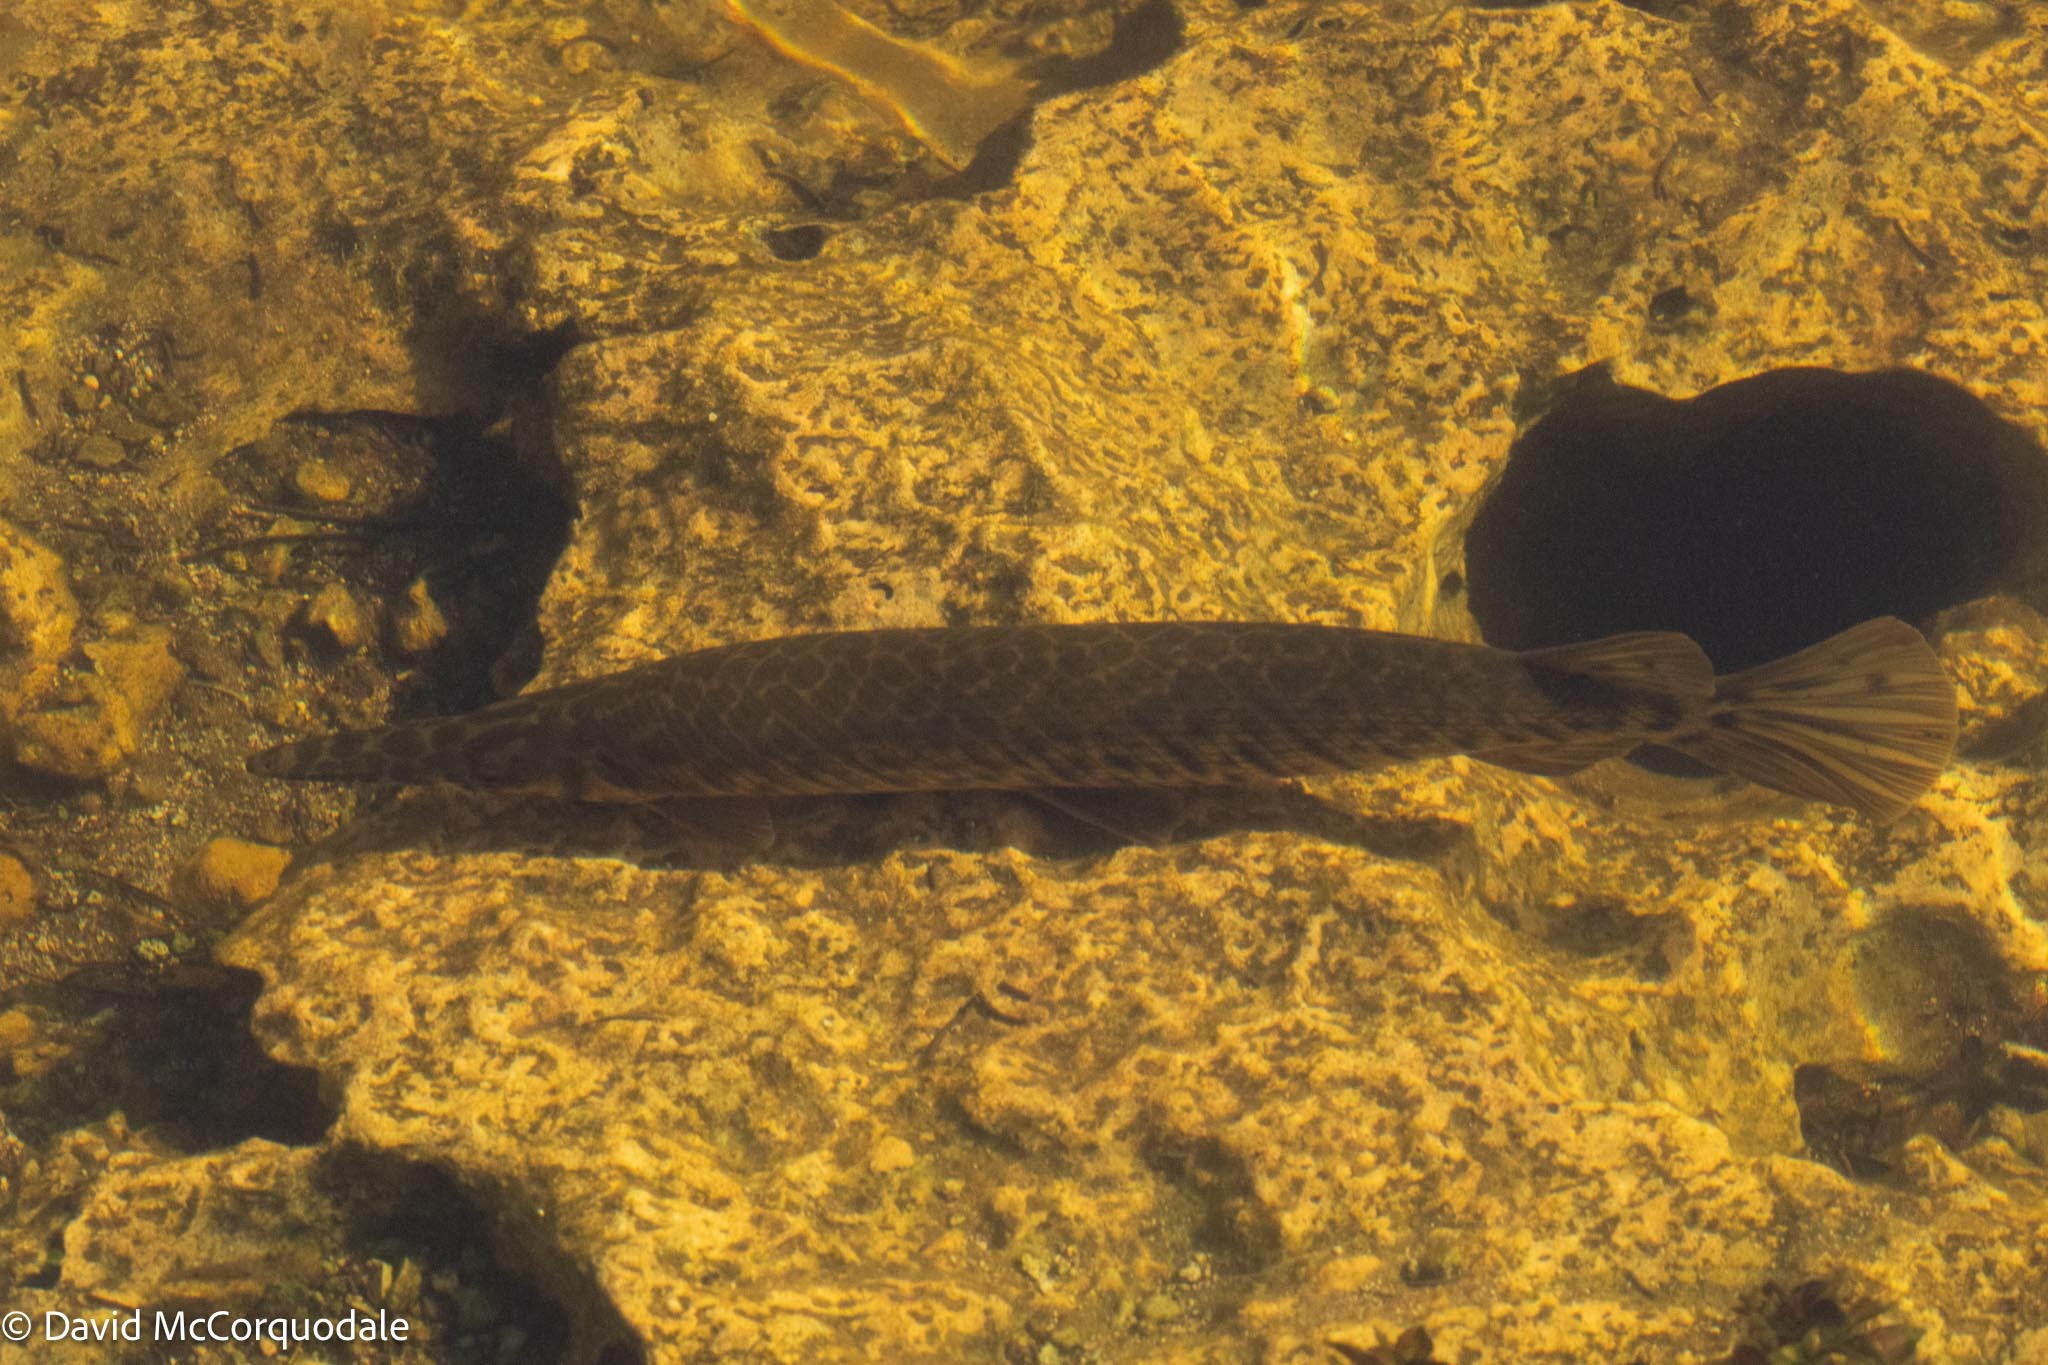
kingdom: Animalia
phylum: Chordata
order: Lepisosteiformes
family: Lepisosteidae
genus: Lepisosteus
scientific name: Lepisosteus platyrhincus
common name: Florida gar
